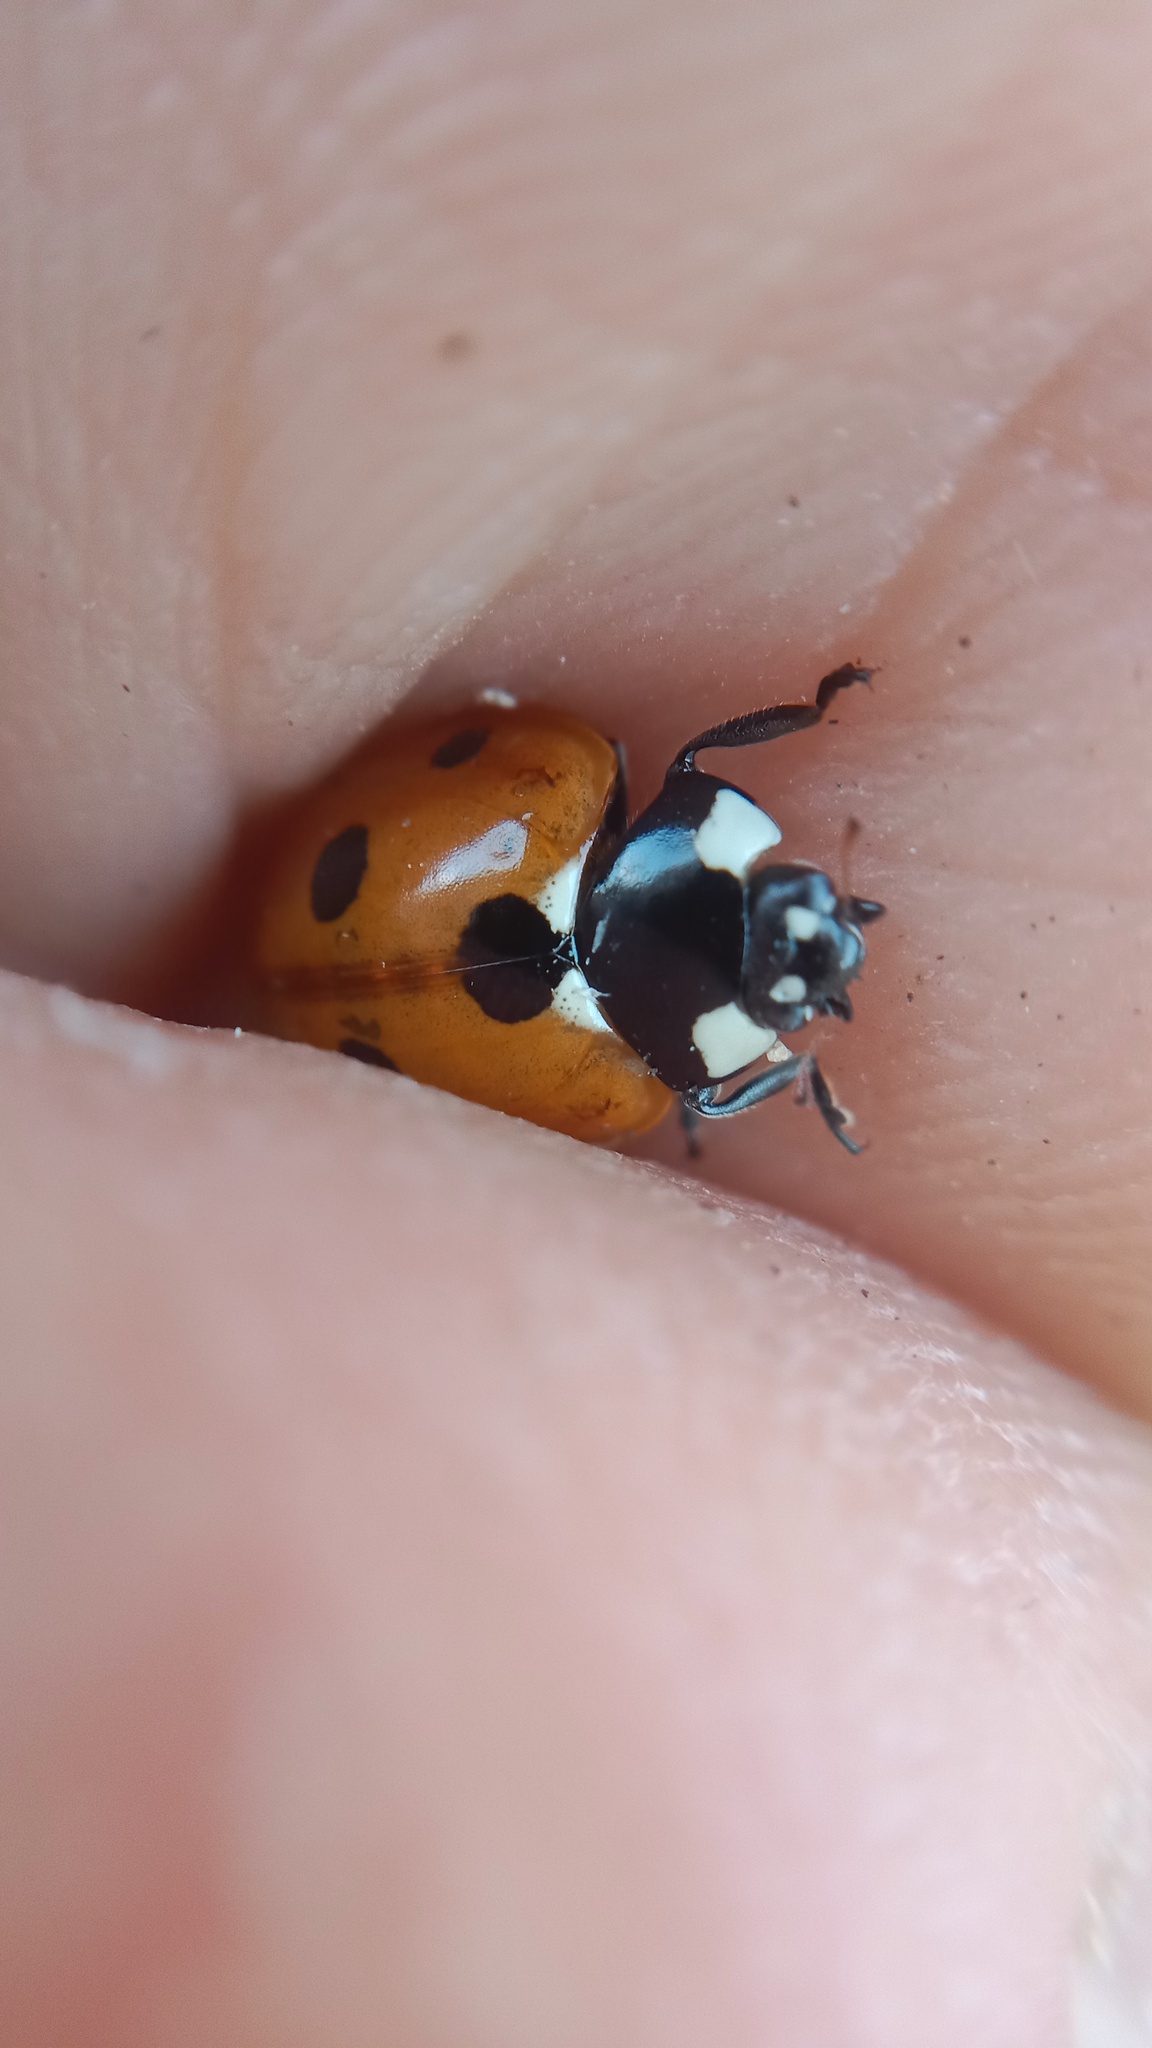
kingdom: Animalia
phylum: Arthropoda
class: Insecta
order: Coleoptera
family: Coccinellidae
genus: Coccinella
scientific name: Coccinella septempunctata
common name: Sevenspotted lady beetle
